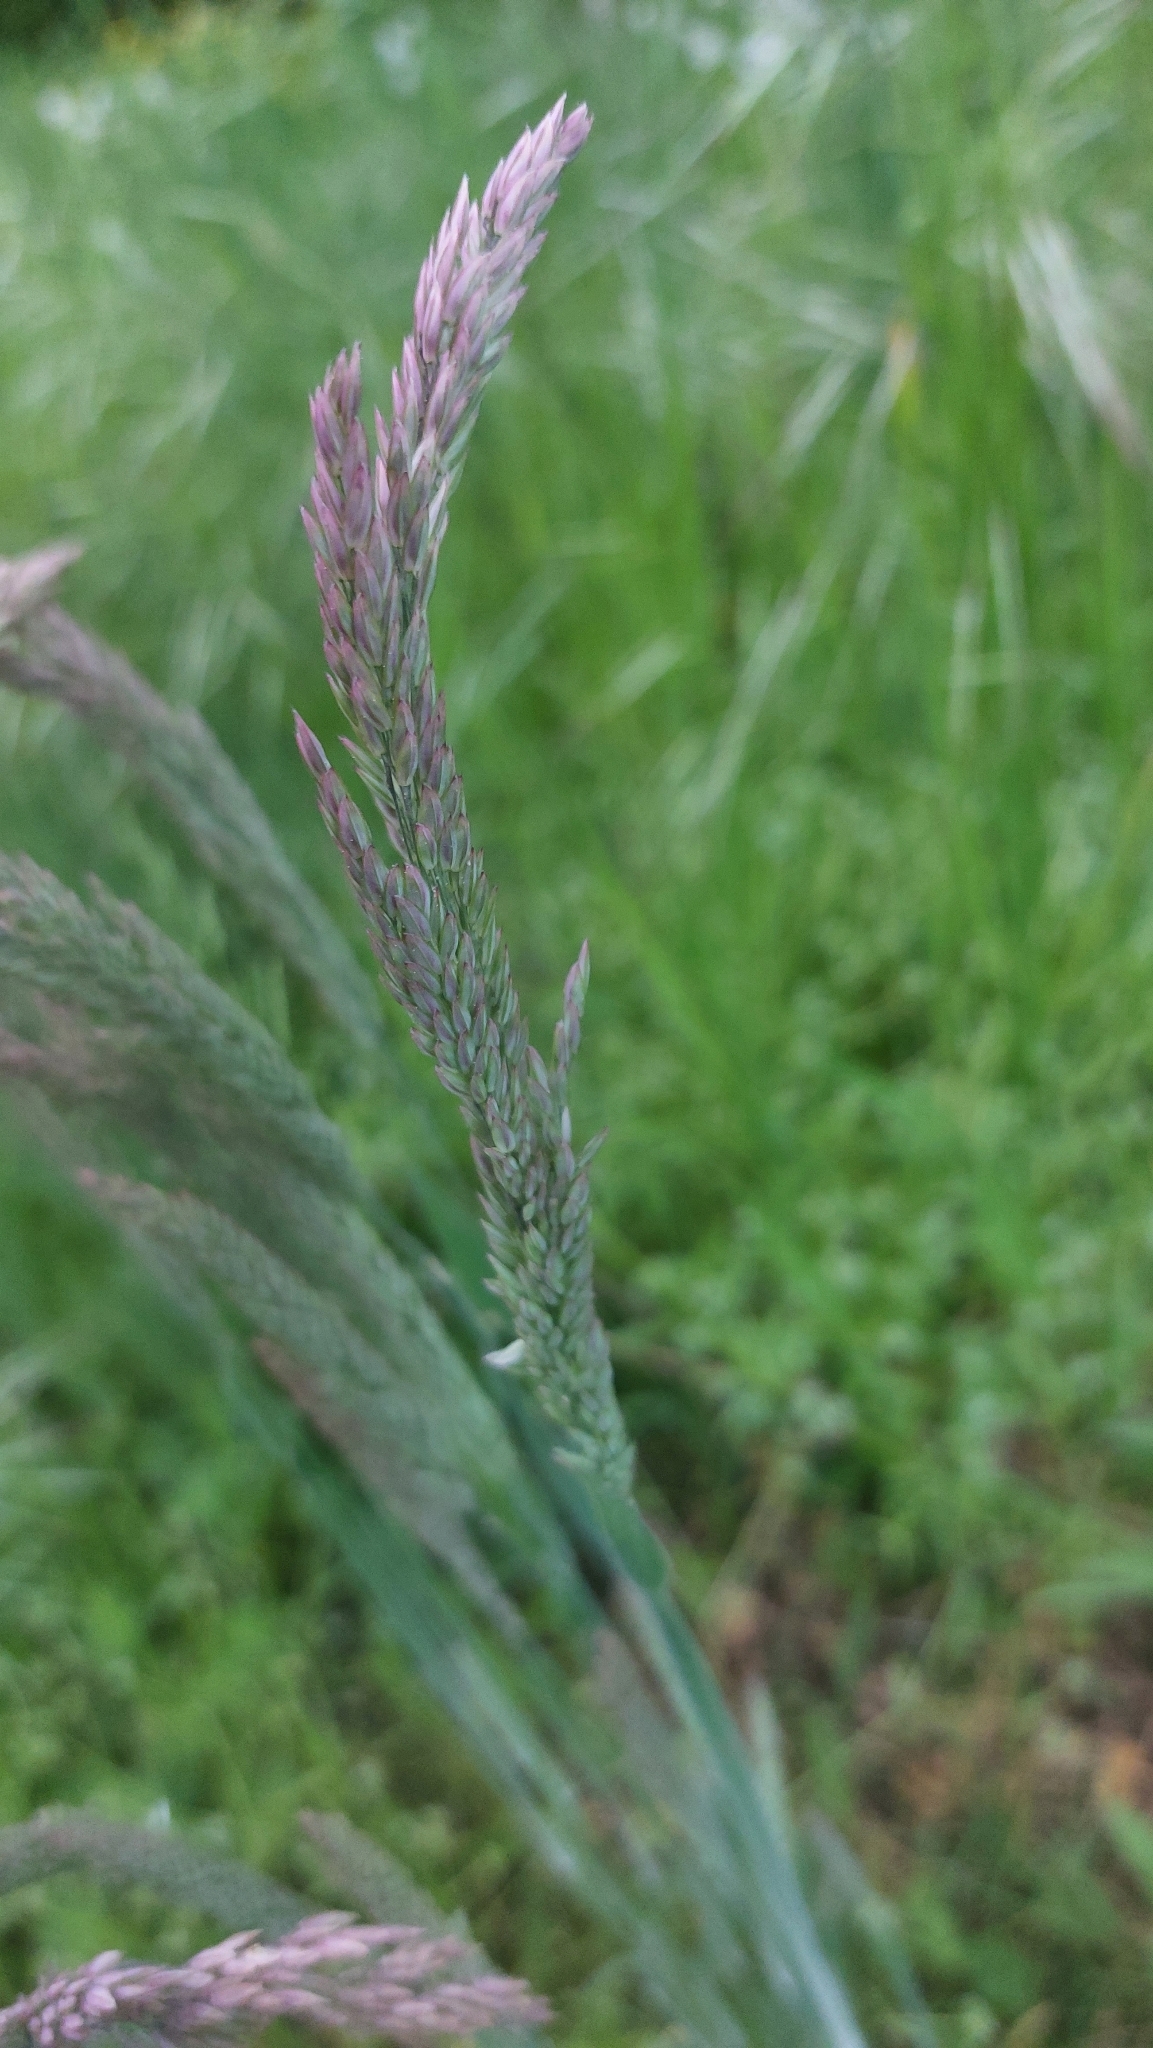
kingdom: Plantae
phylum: Tracheophyta
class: Liliopsida
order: Poales
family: Poaceae
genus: Holcus
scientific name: Holcus lanatus
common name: Yorkshire-fog
